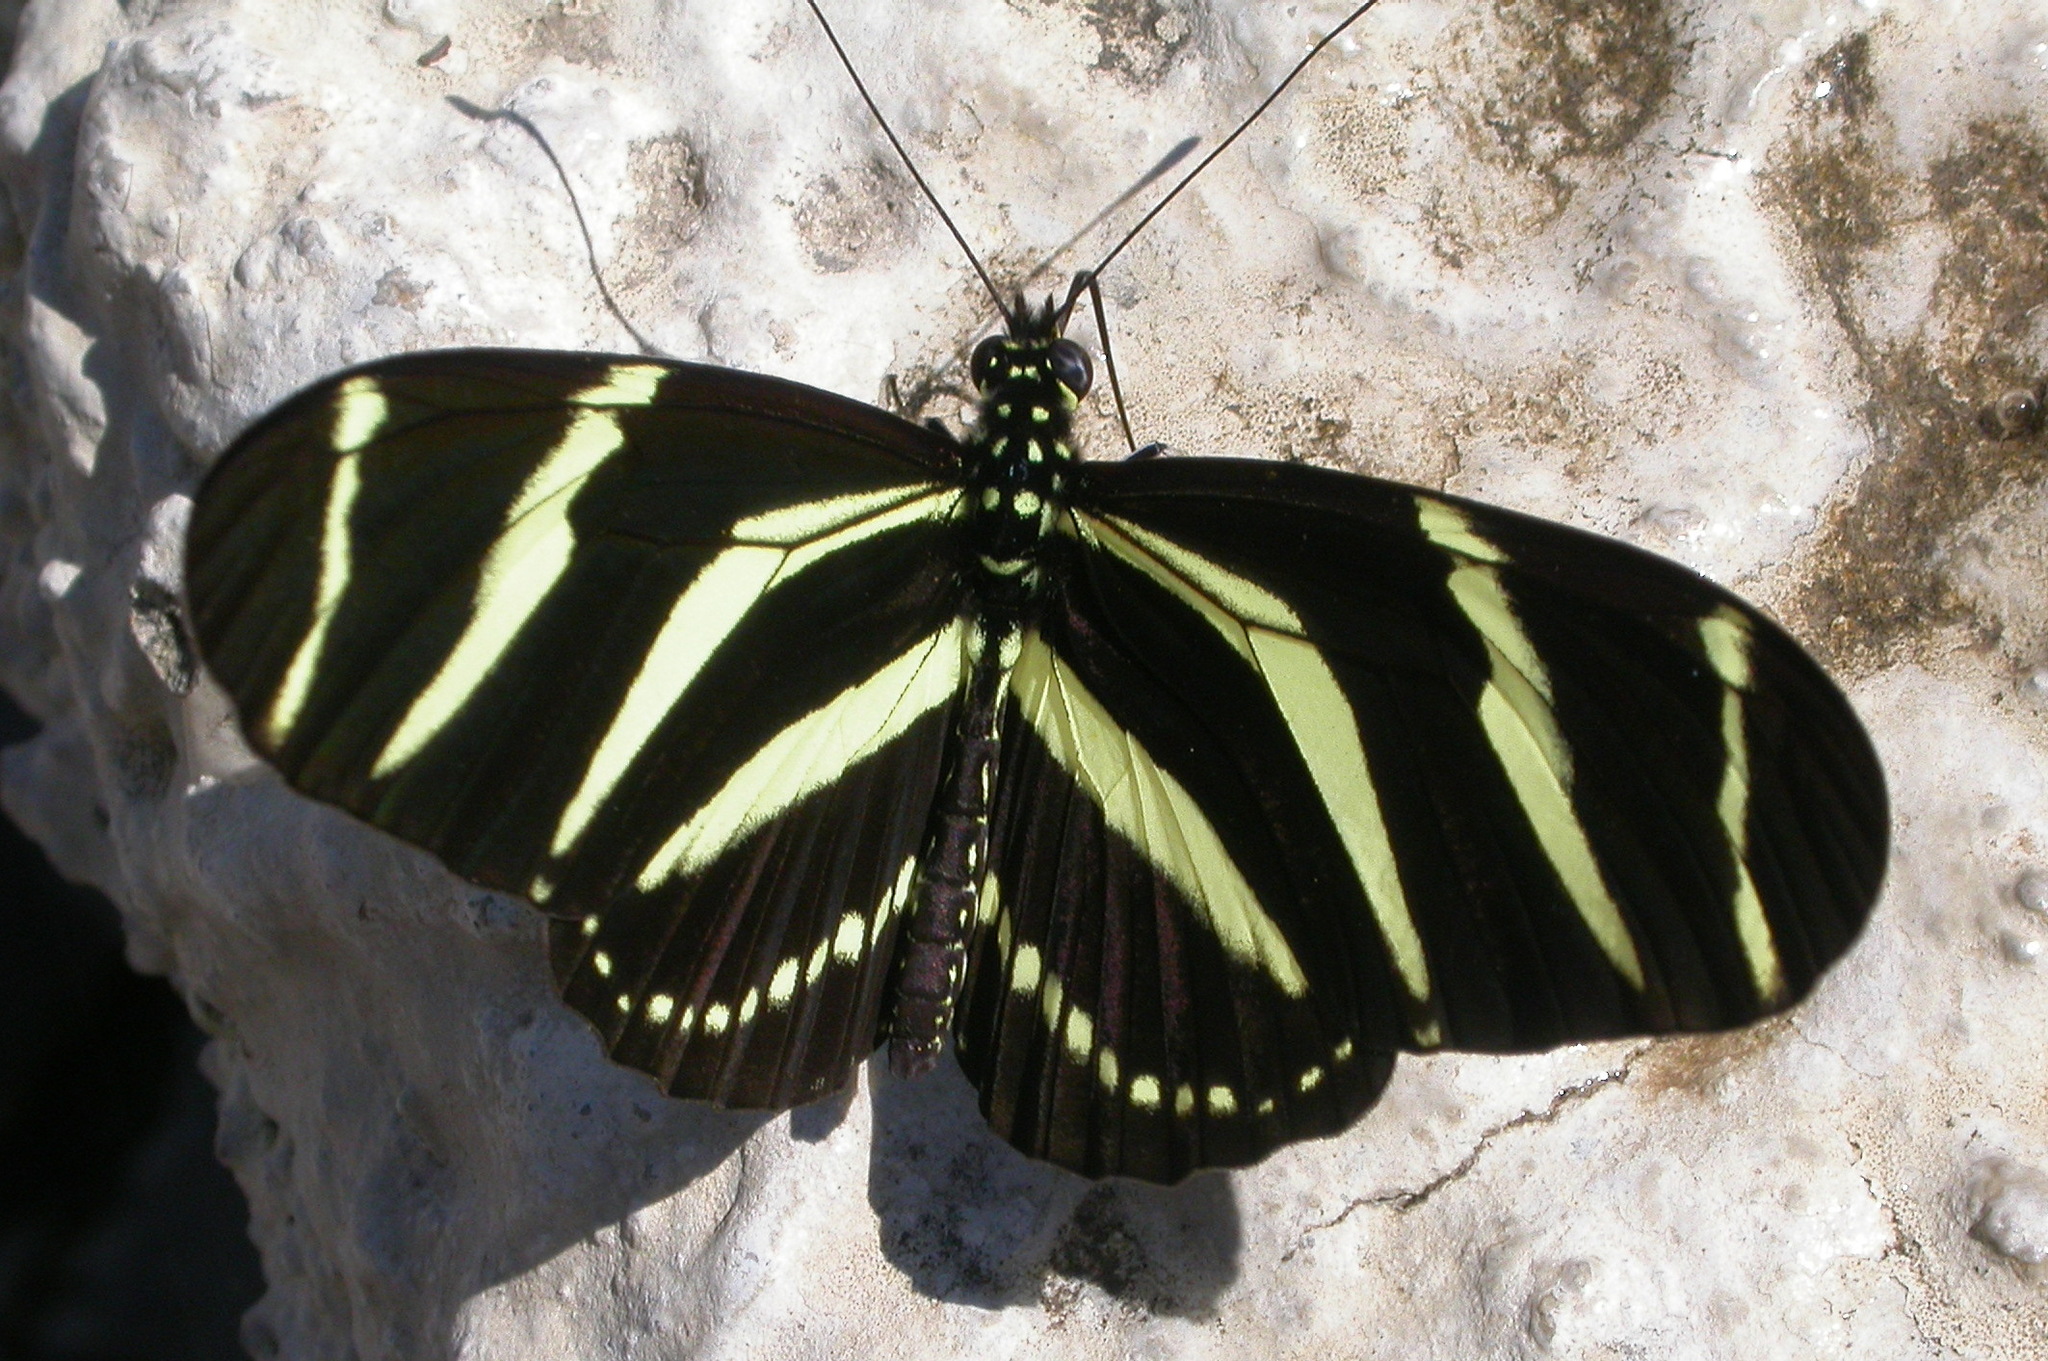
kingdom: Animalia
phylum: Arthropoda
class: Insecta
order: Lepidoptera
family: Nymphalidae
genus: Heliconius
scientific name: Heliconius charithonia
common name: Zebra long wing
